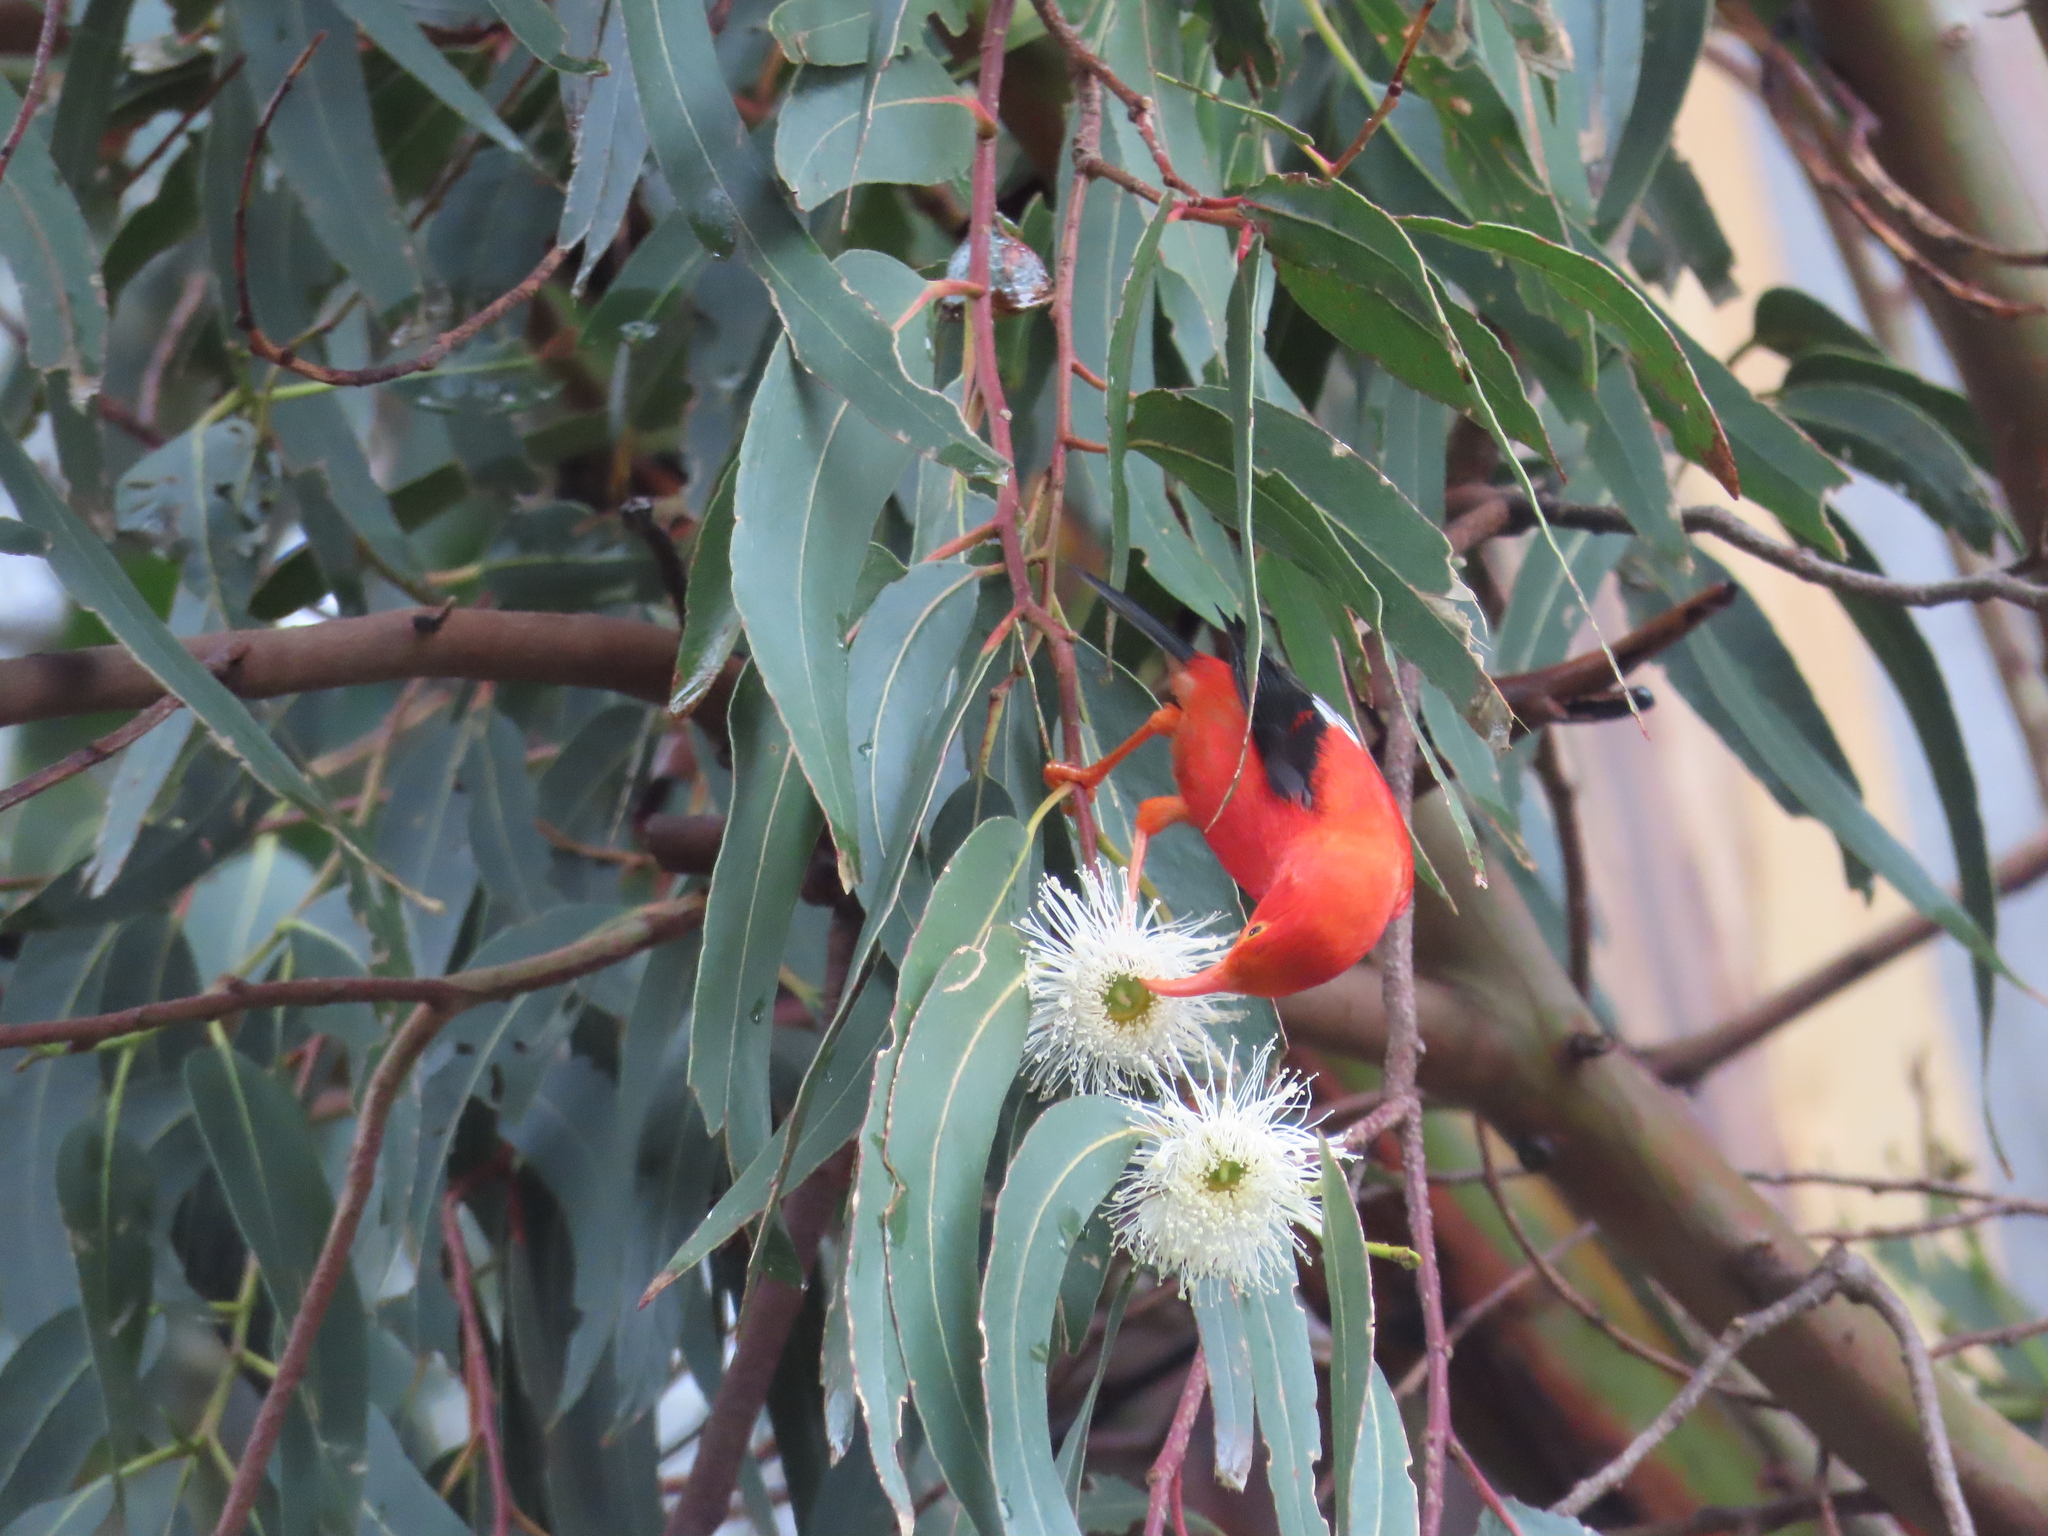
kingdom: Animalia
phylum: Chordata
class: Aves
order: Passeriformes
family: Fringillidae
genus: Vestiaria
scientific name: Vestiaria coccinea
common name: Iiwi
